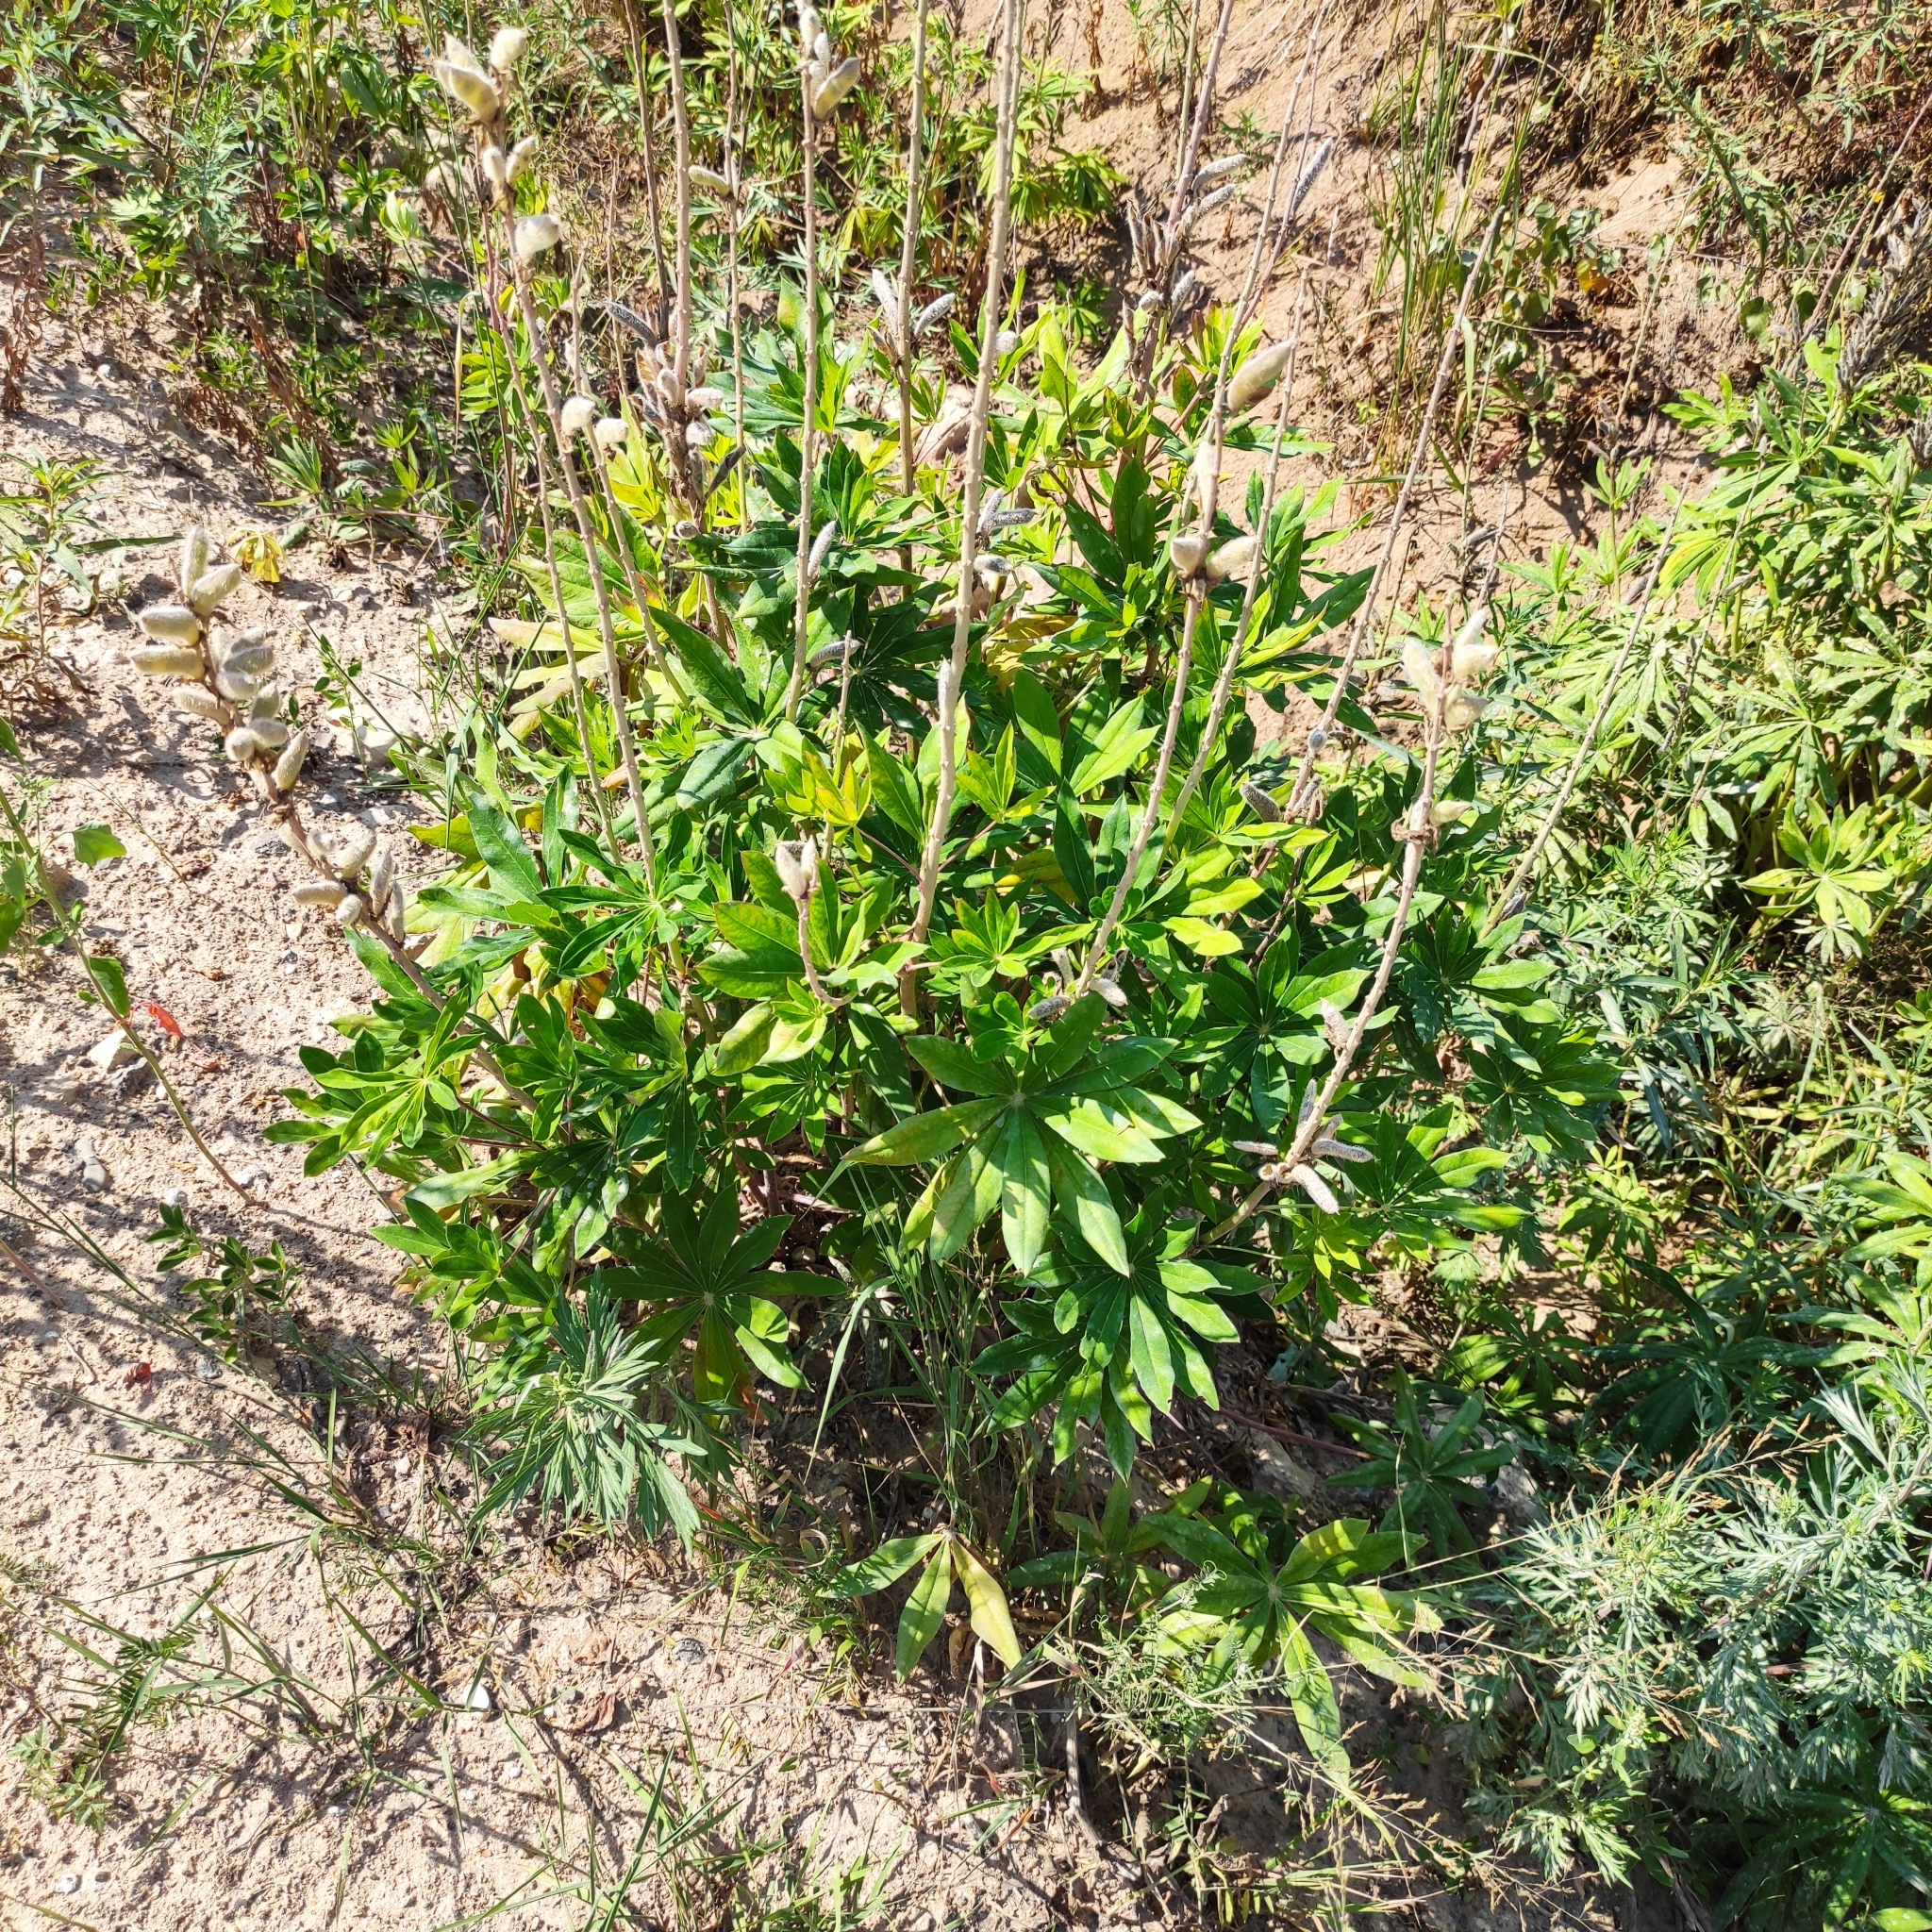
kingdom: Plantae
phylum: Tracheophyta
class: Magnoliopsida
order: Fabales
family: Fabaceae
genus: Lupinus
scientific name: Lupinus polyphyllus
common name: Garden lupin
